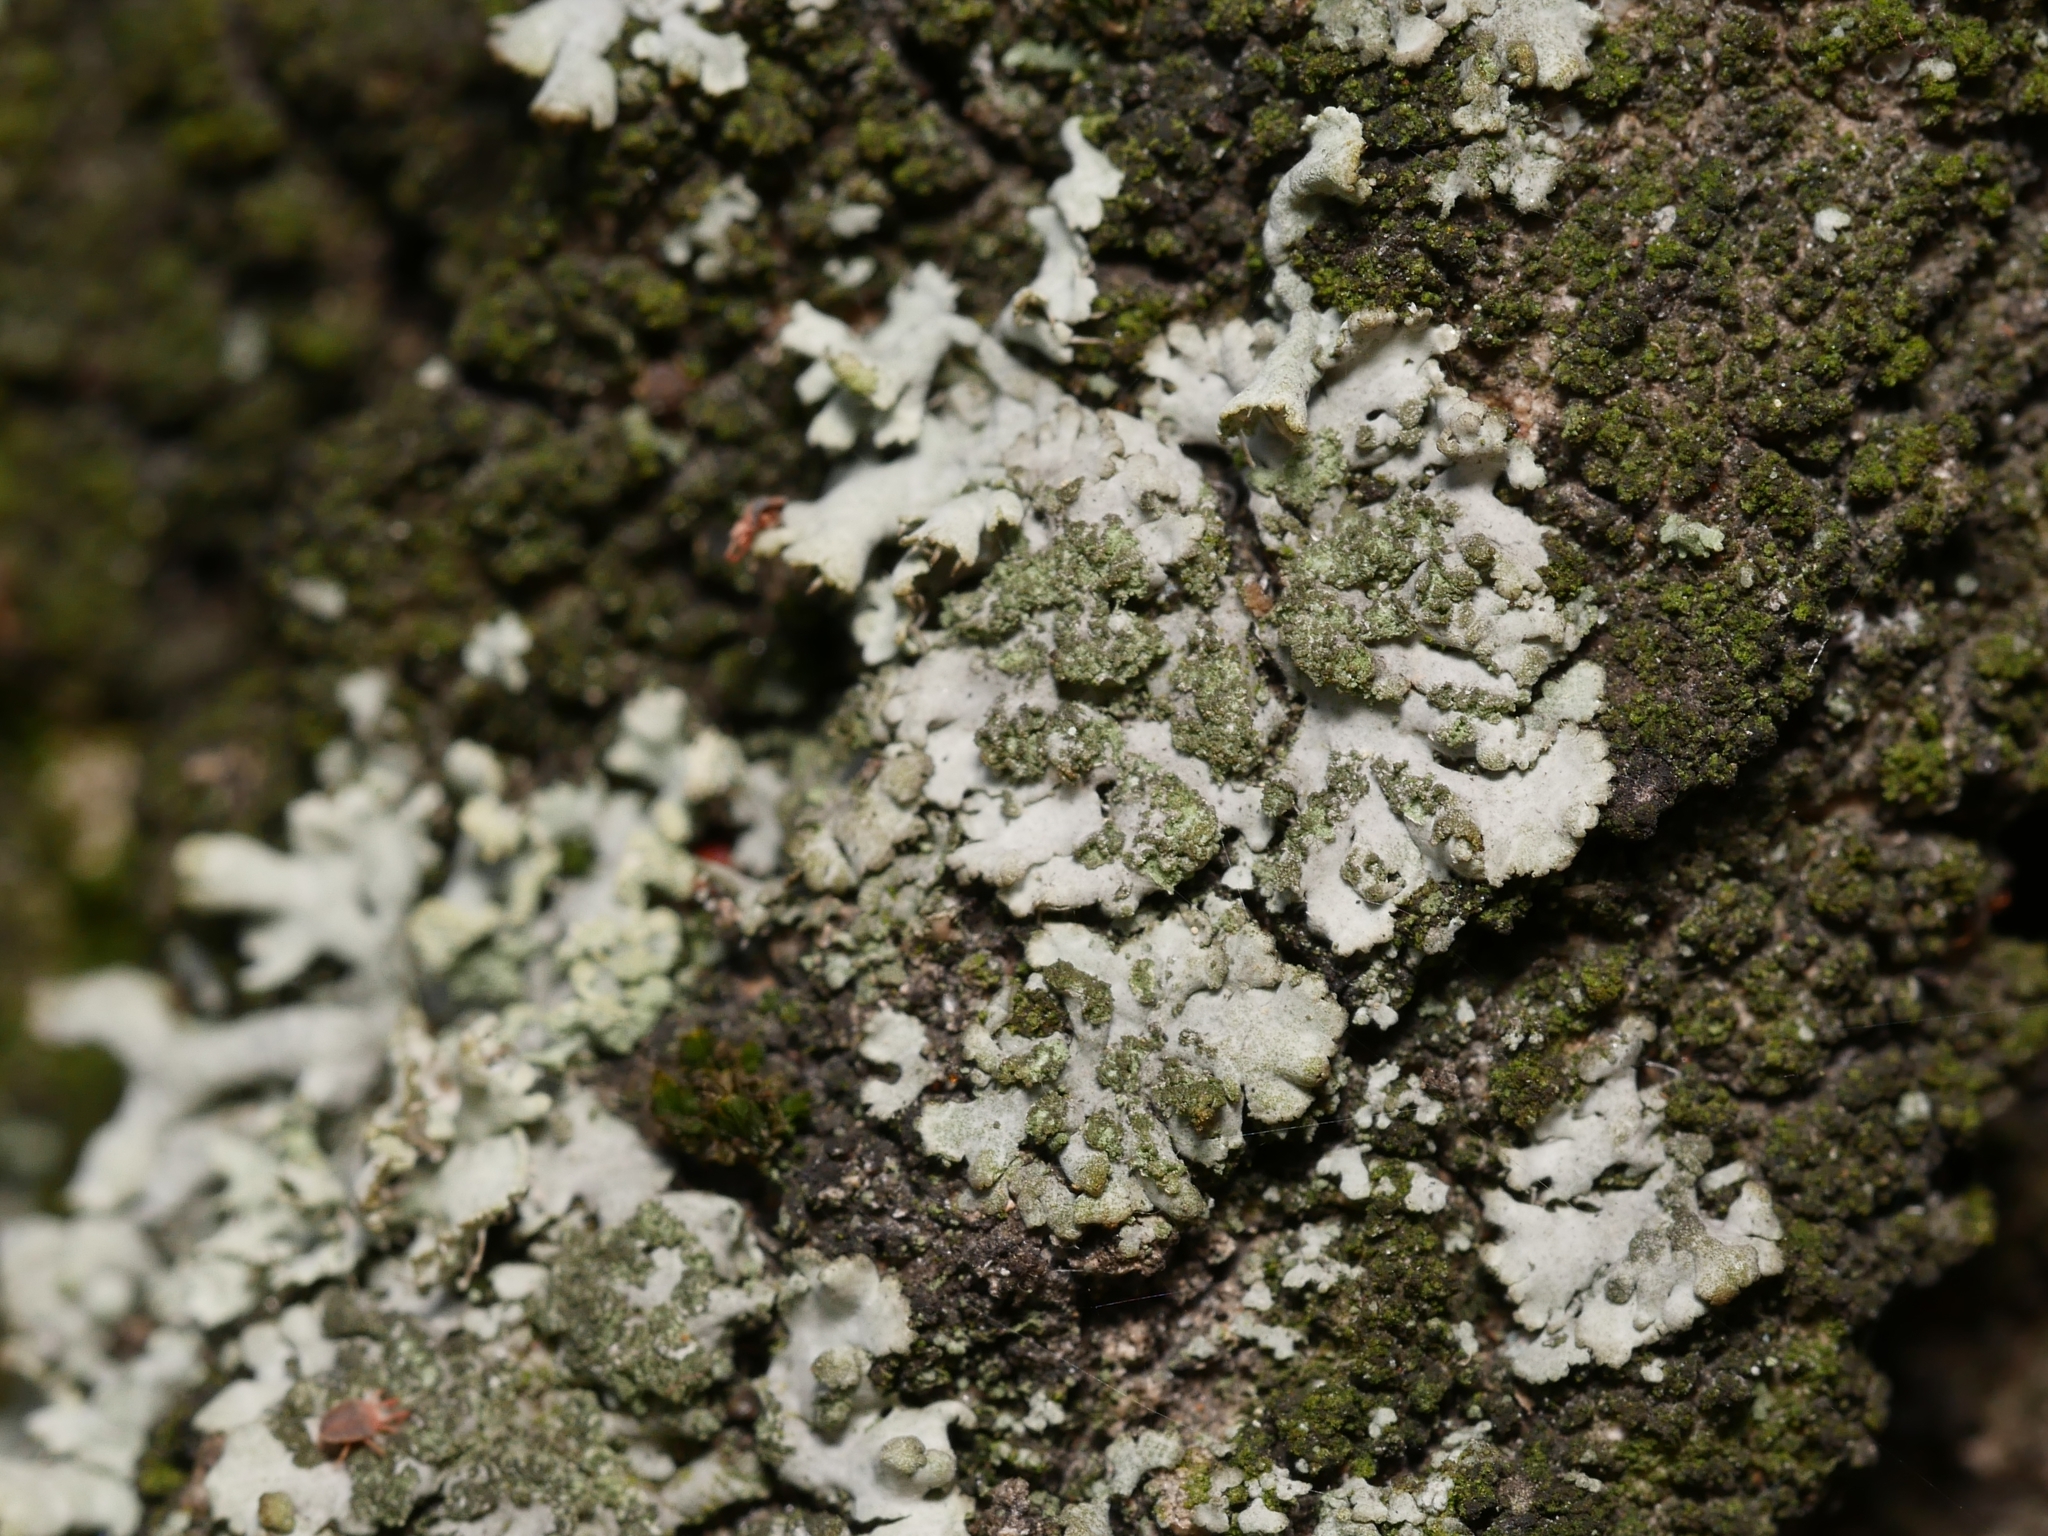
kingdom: Fungi
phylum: Ascomycota
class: Lecanoromycetes
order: Caliciales
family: Physciaceae
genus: Phaeophyscia
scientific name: Phaeophyscia orbicularis
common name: Mealy shadow lichen
